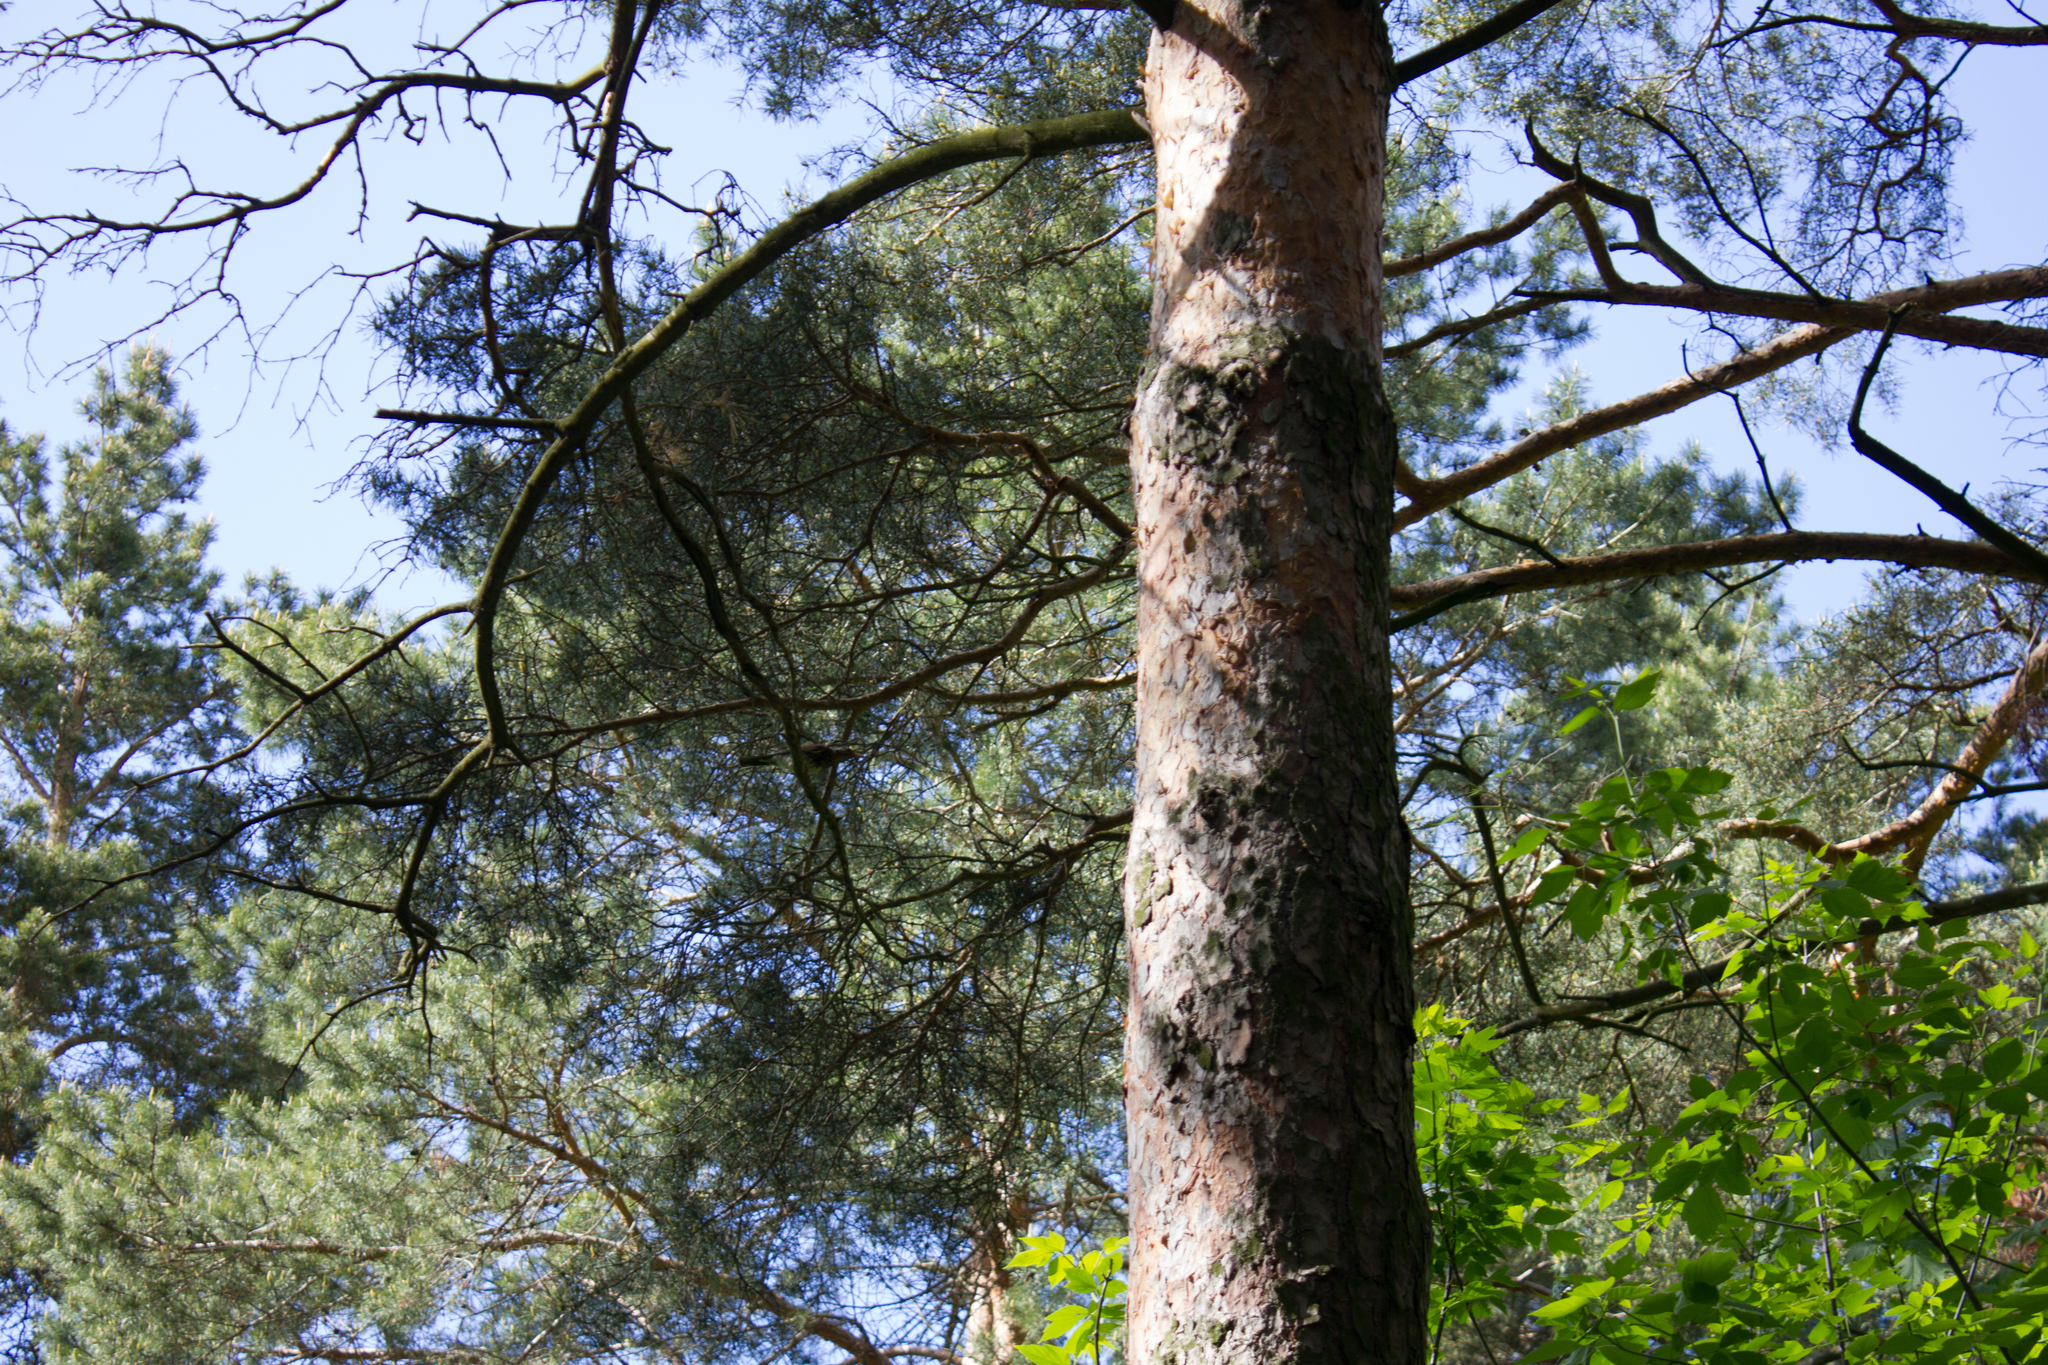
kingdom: Plantae
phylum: Tracheophyta
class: Pinopsida
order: Pinales
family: Pinaceae
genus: Pinus
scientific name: Pinus sylvestris
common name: Scots pine
